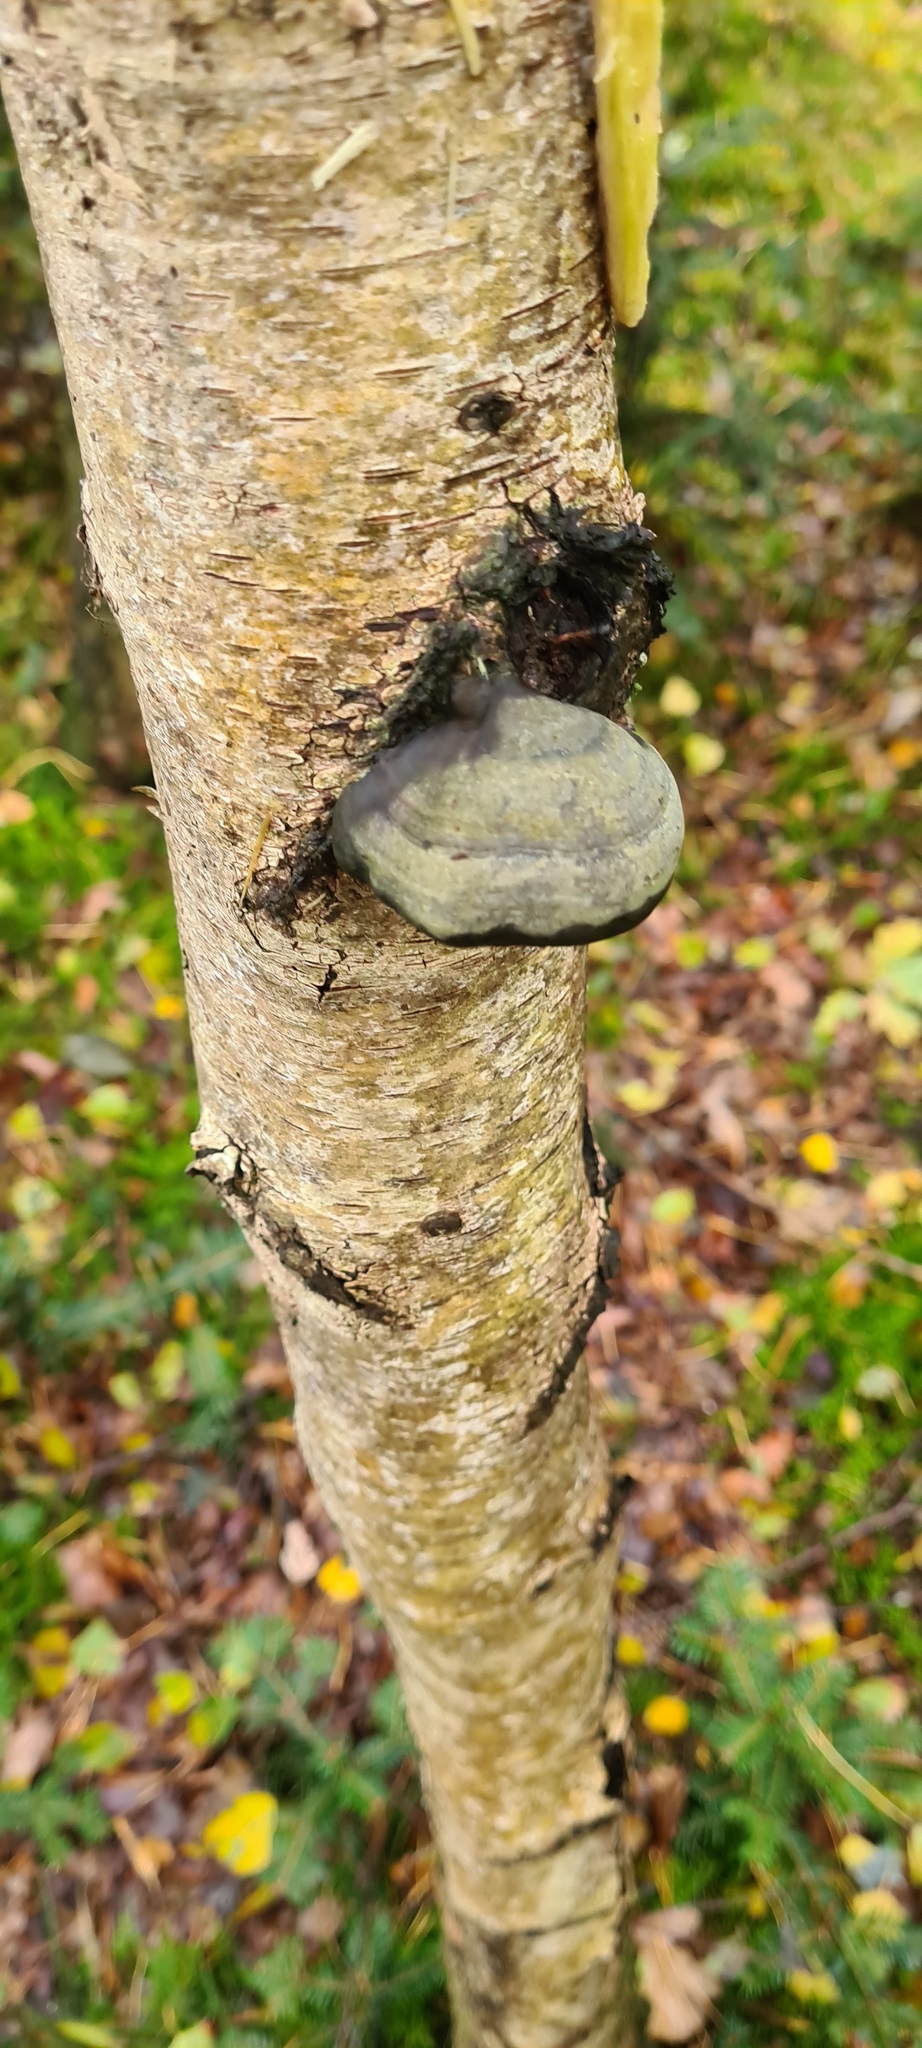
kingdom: Fungi
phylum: Basidiomycota
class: Agaricomycetes
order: Polyporales
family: Polyporaceae
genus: Fomes
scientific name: Fomes fomentarius
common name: Hoof fungus
